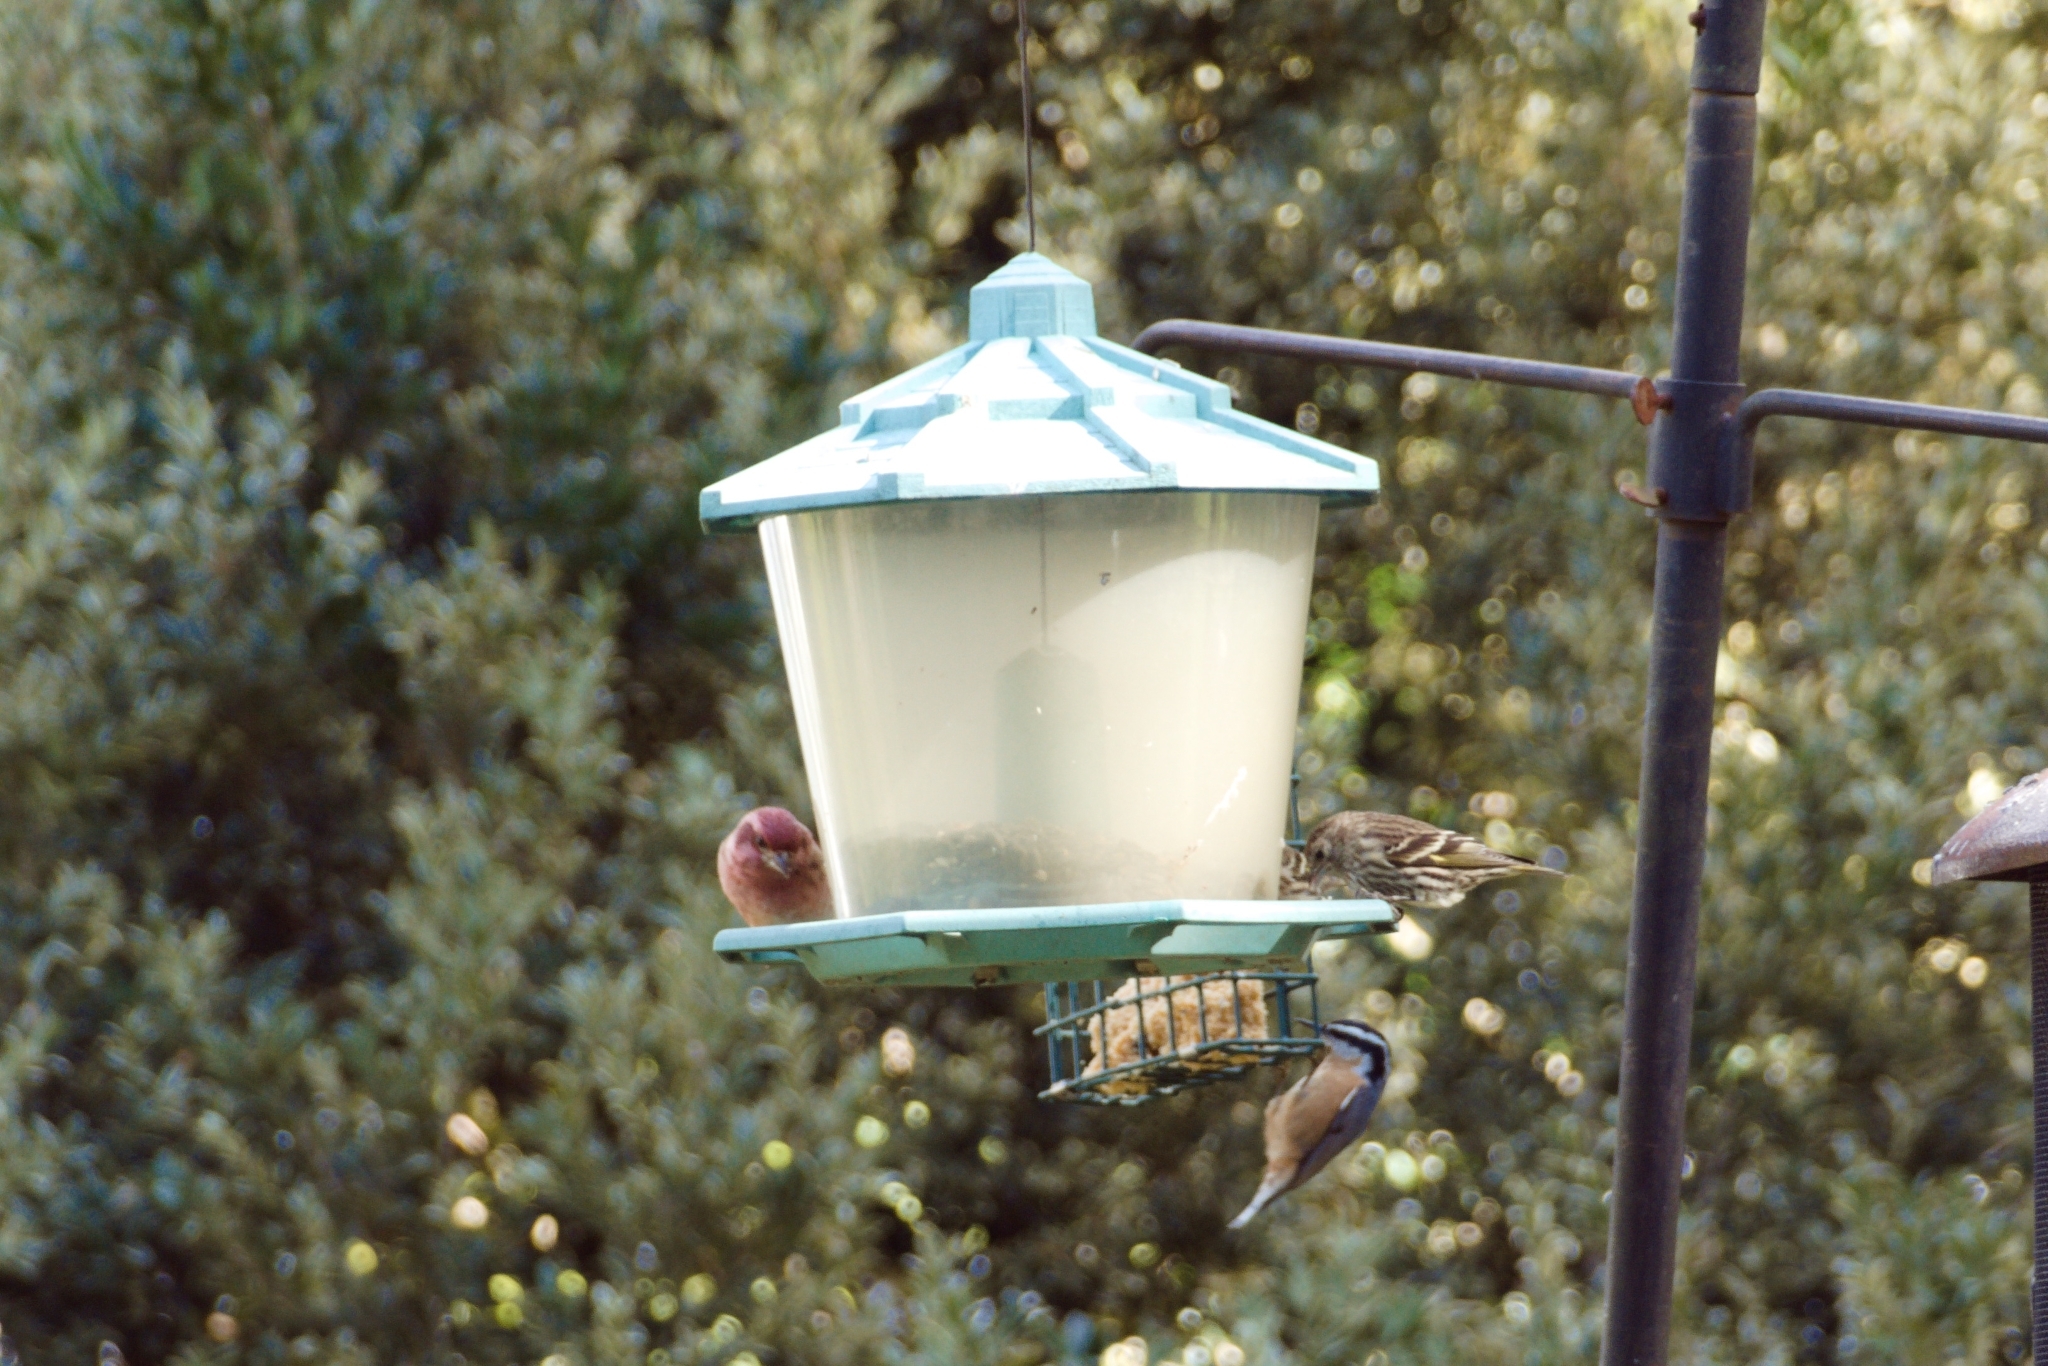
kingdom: Animalia
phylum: Chordata
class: Aves
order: Passeriformes
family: Fringillidae
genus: Spinus
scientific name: Spinus pinus
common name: Pine siskin
